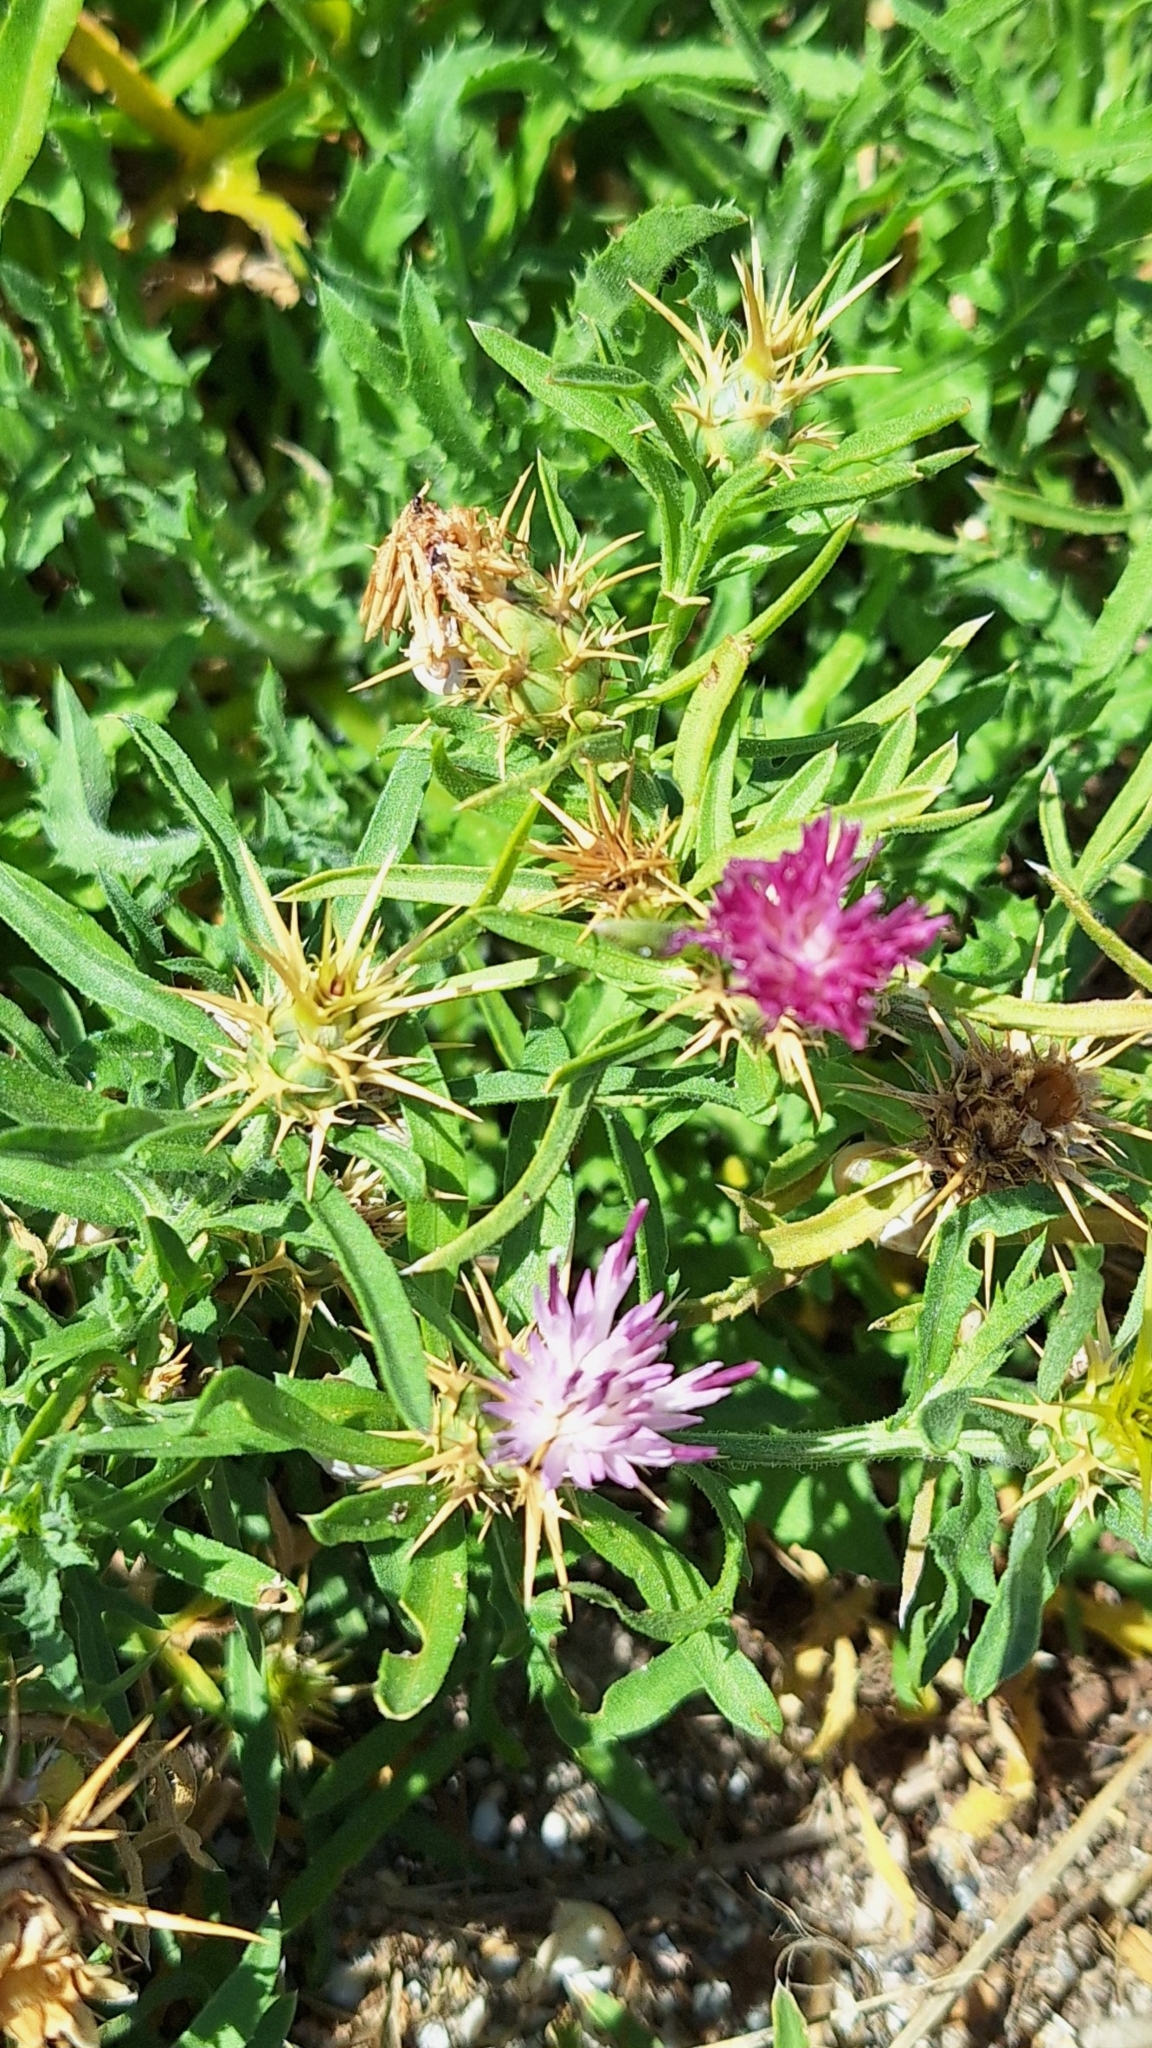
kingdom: Plantae
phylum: Tracheophyta
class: Magnoliopsida
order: Asterales
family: Asteraceae
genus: Centaurea
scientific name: Centaurea calcitrapa
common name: Red star-thistle
